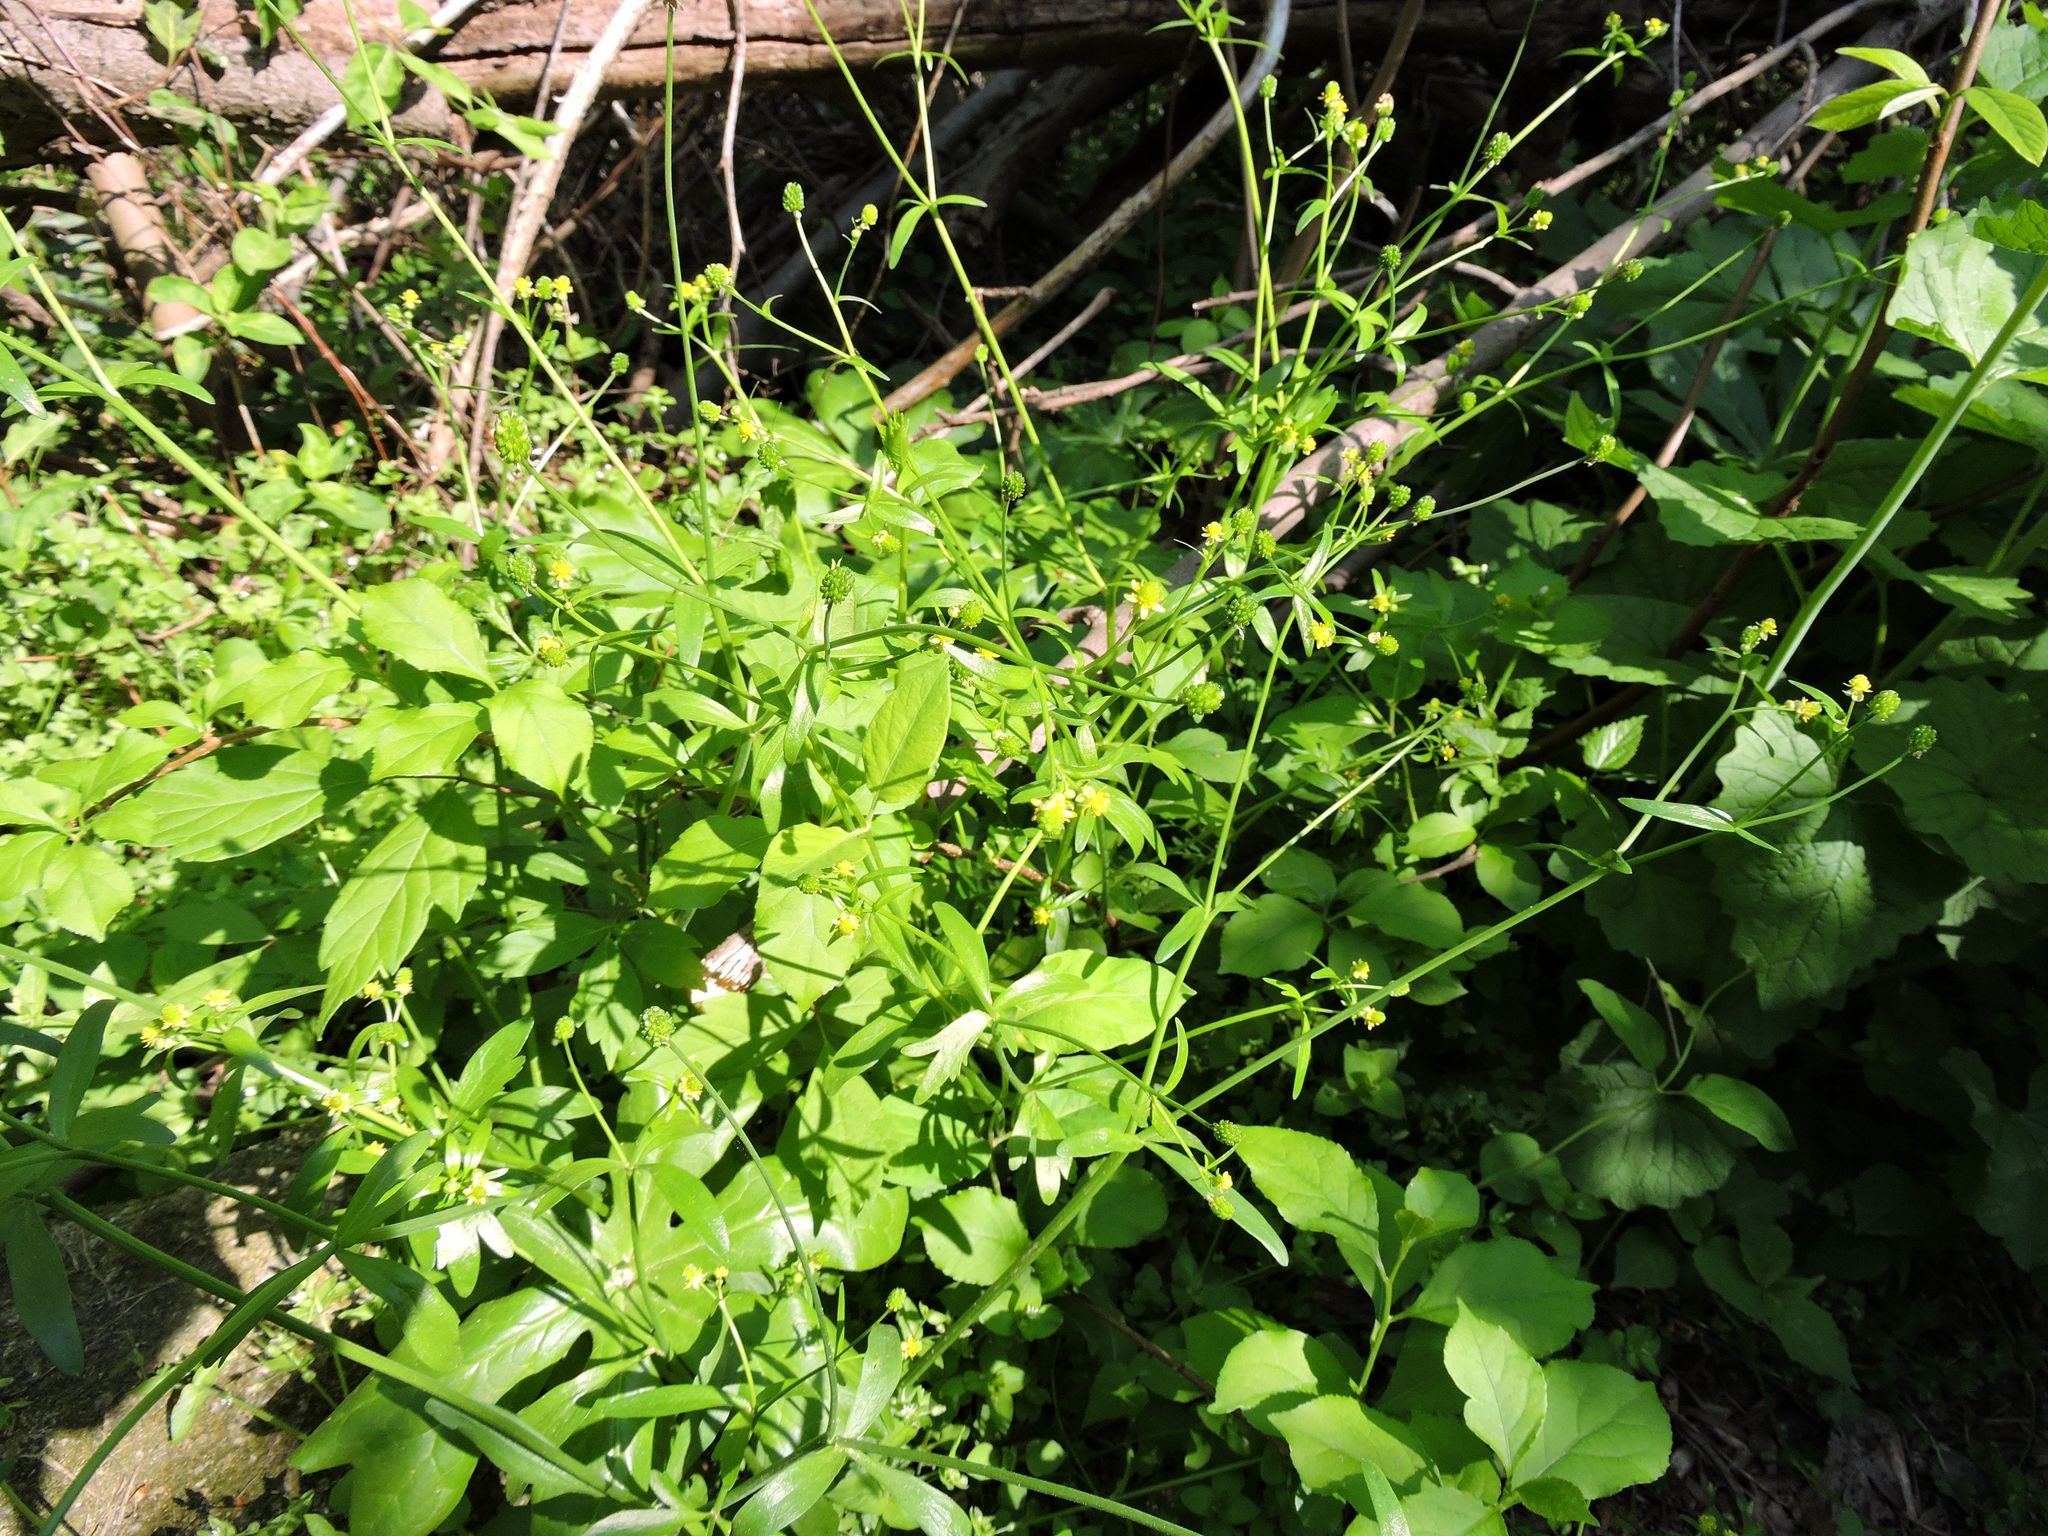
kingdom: Plantae
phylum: Tracheophyta
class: Magnoliopsida
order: Ranunculales
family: Ranunculaceae
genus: Ranunculus
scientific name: Ranunculus abortivus
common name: Early wood buttercup
